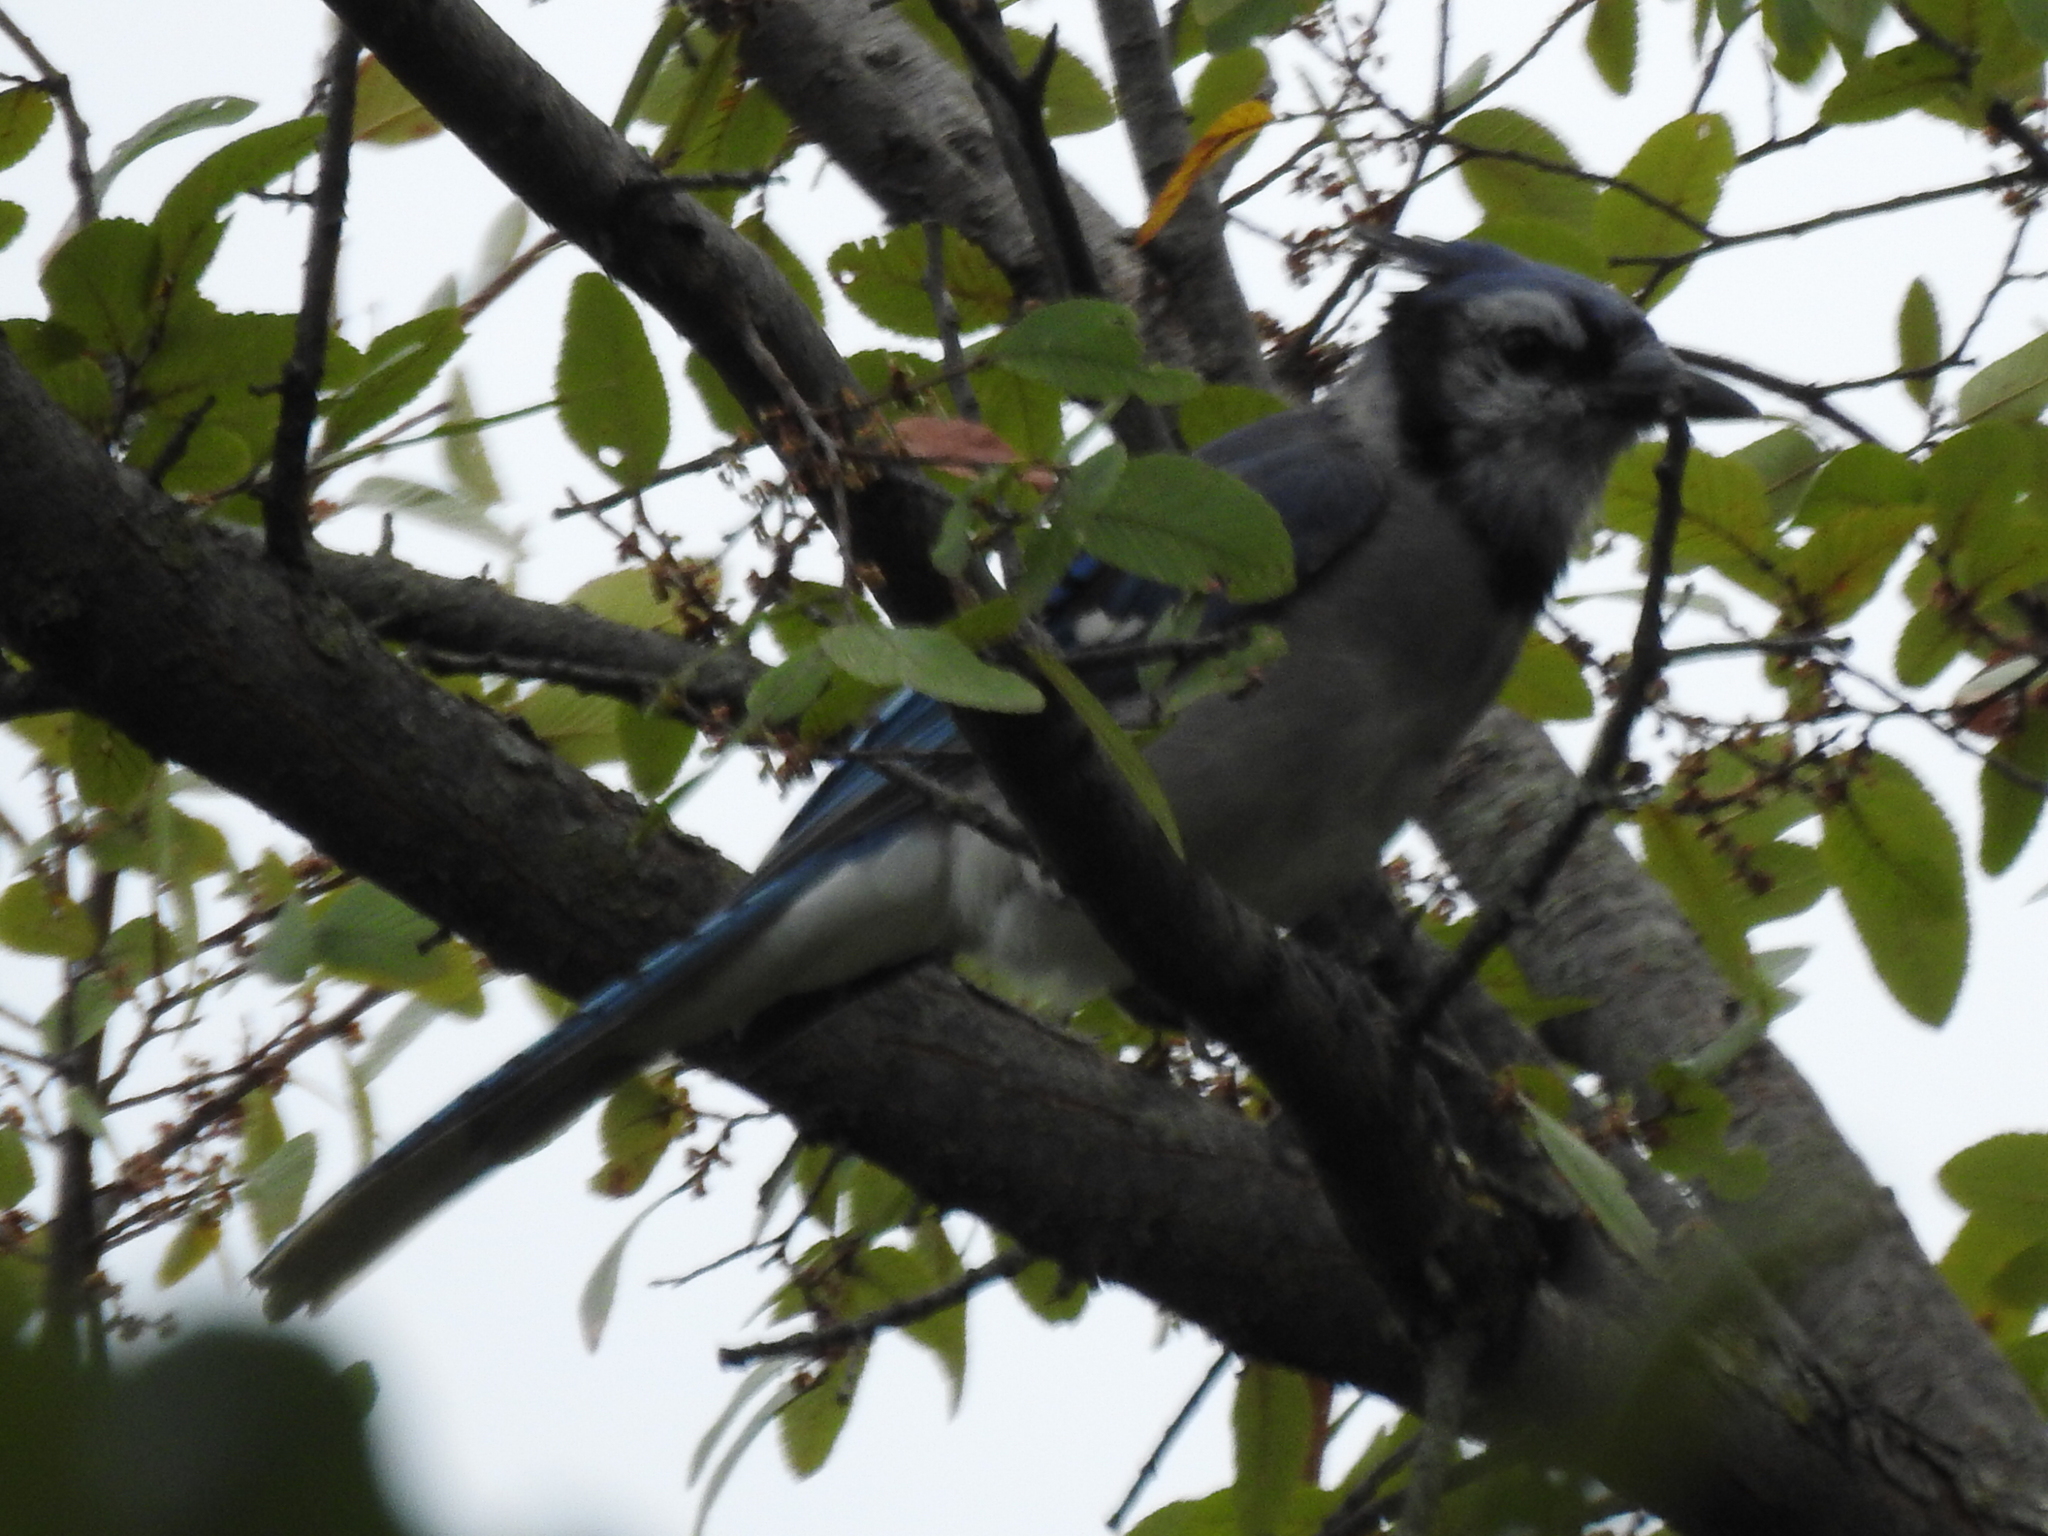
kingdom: Animalia
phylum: Chordata
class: Aves
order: Passeriformes
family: Corvidae
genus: Cyanocitta
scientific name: Cyanocitta cristata
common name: Blue jay
